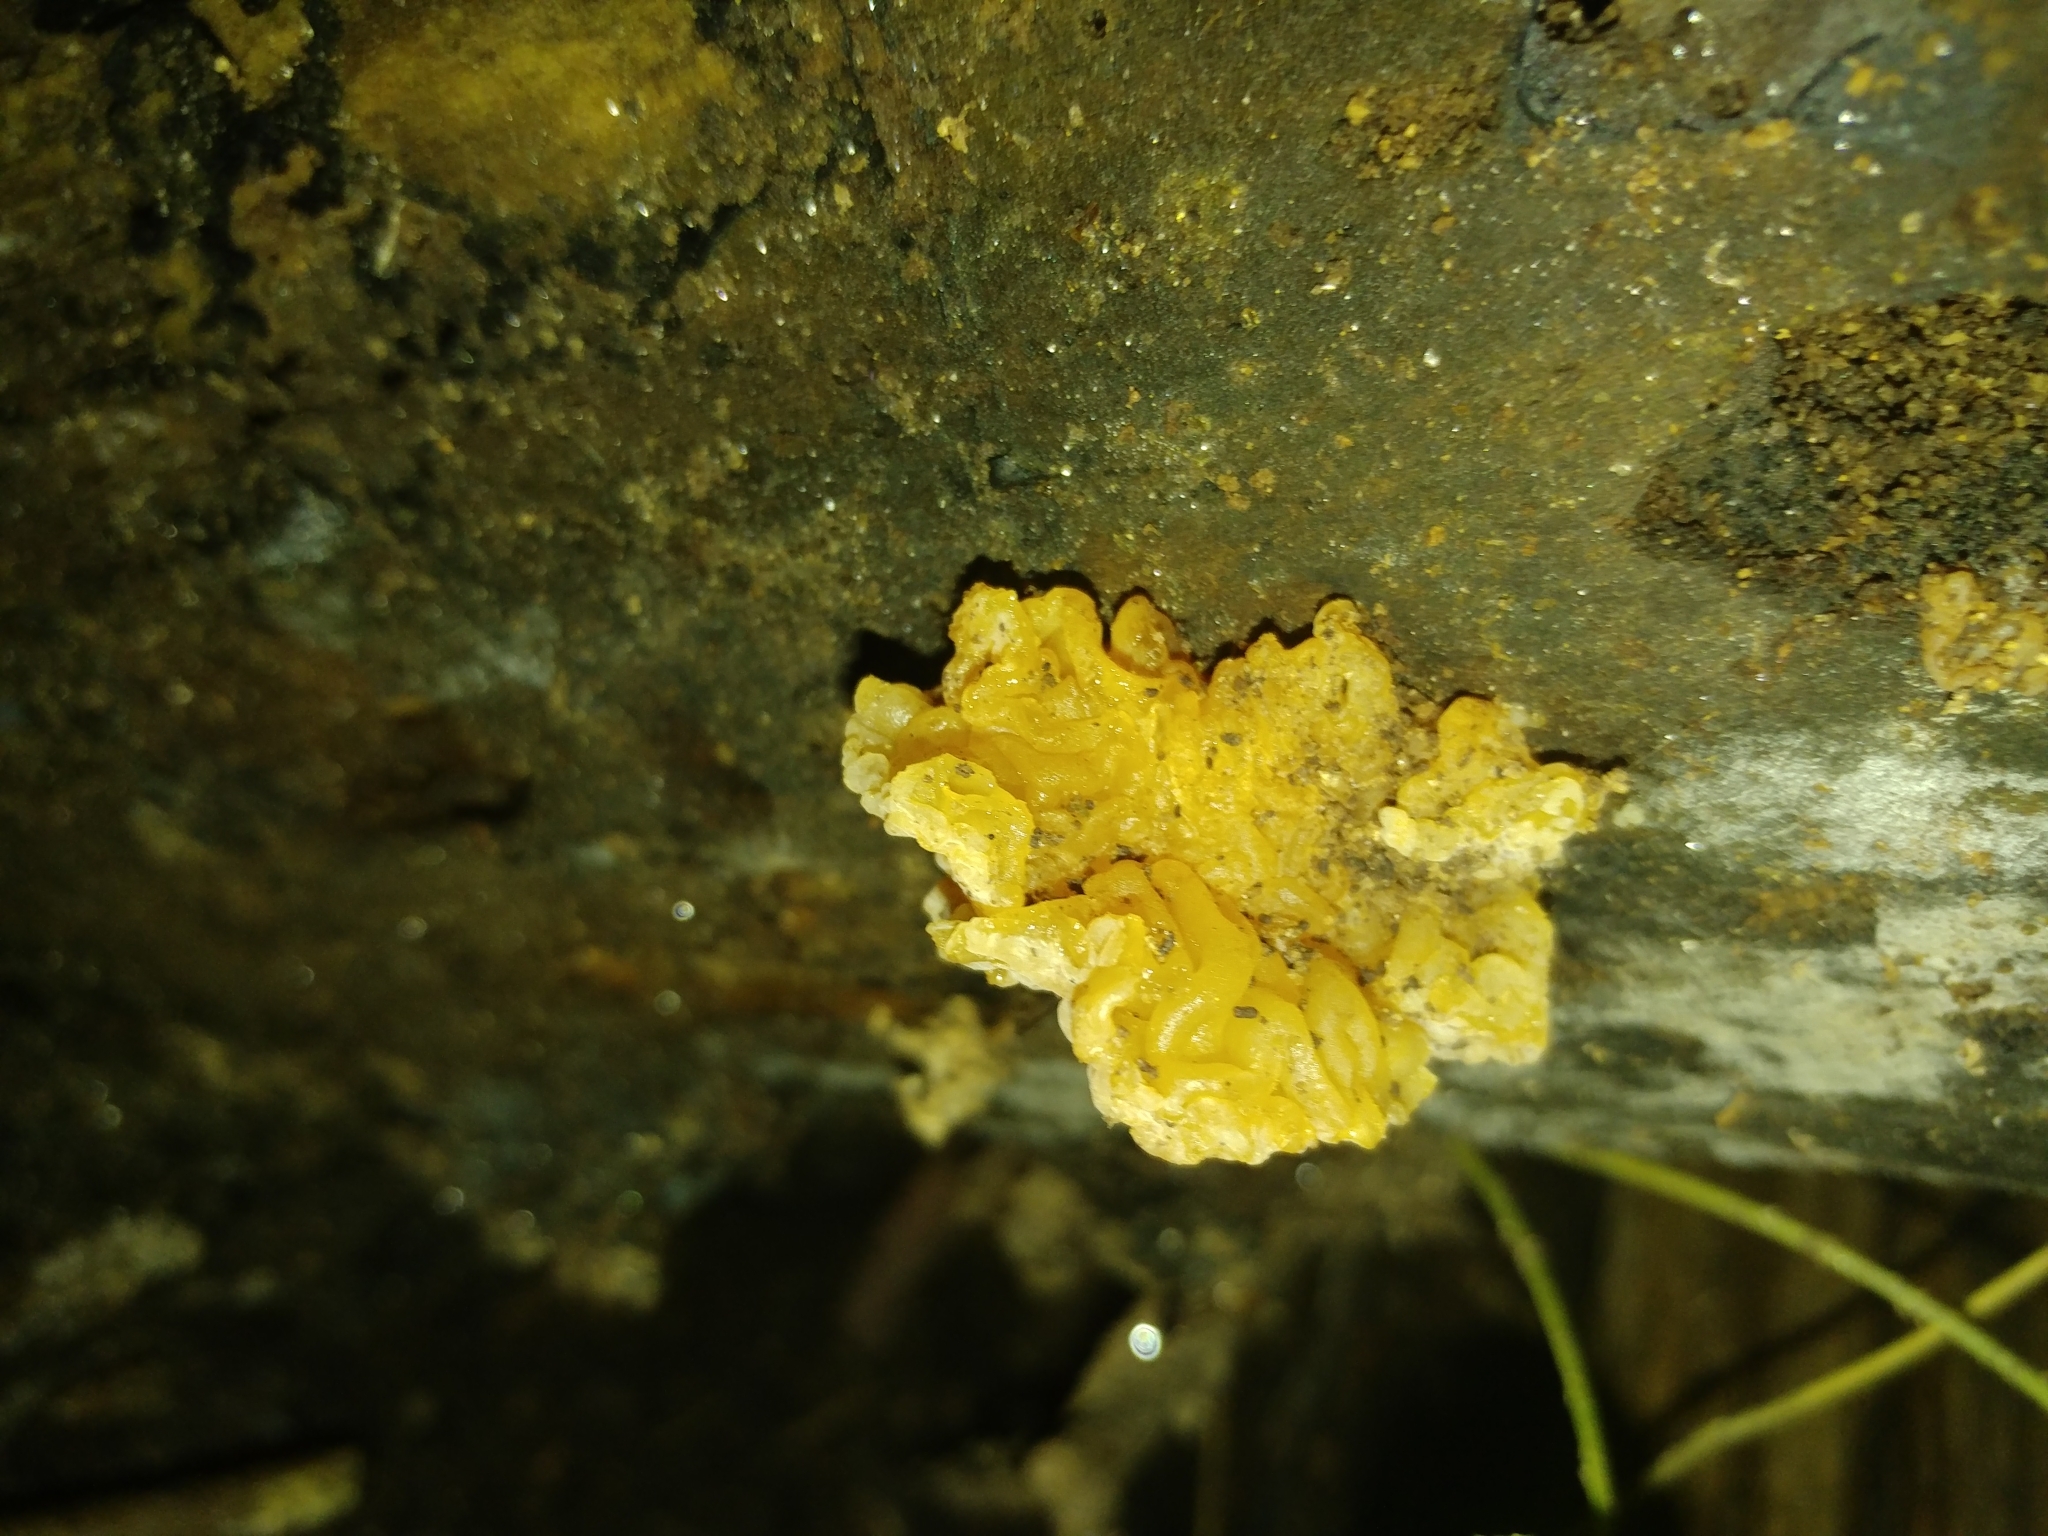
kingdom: Fungi
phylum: Basidiomycota
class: Tremellomycetes
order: Tremellales
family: Tremellaceae
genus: Tremella
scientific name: Tremella mesenterica
